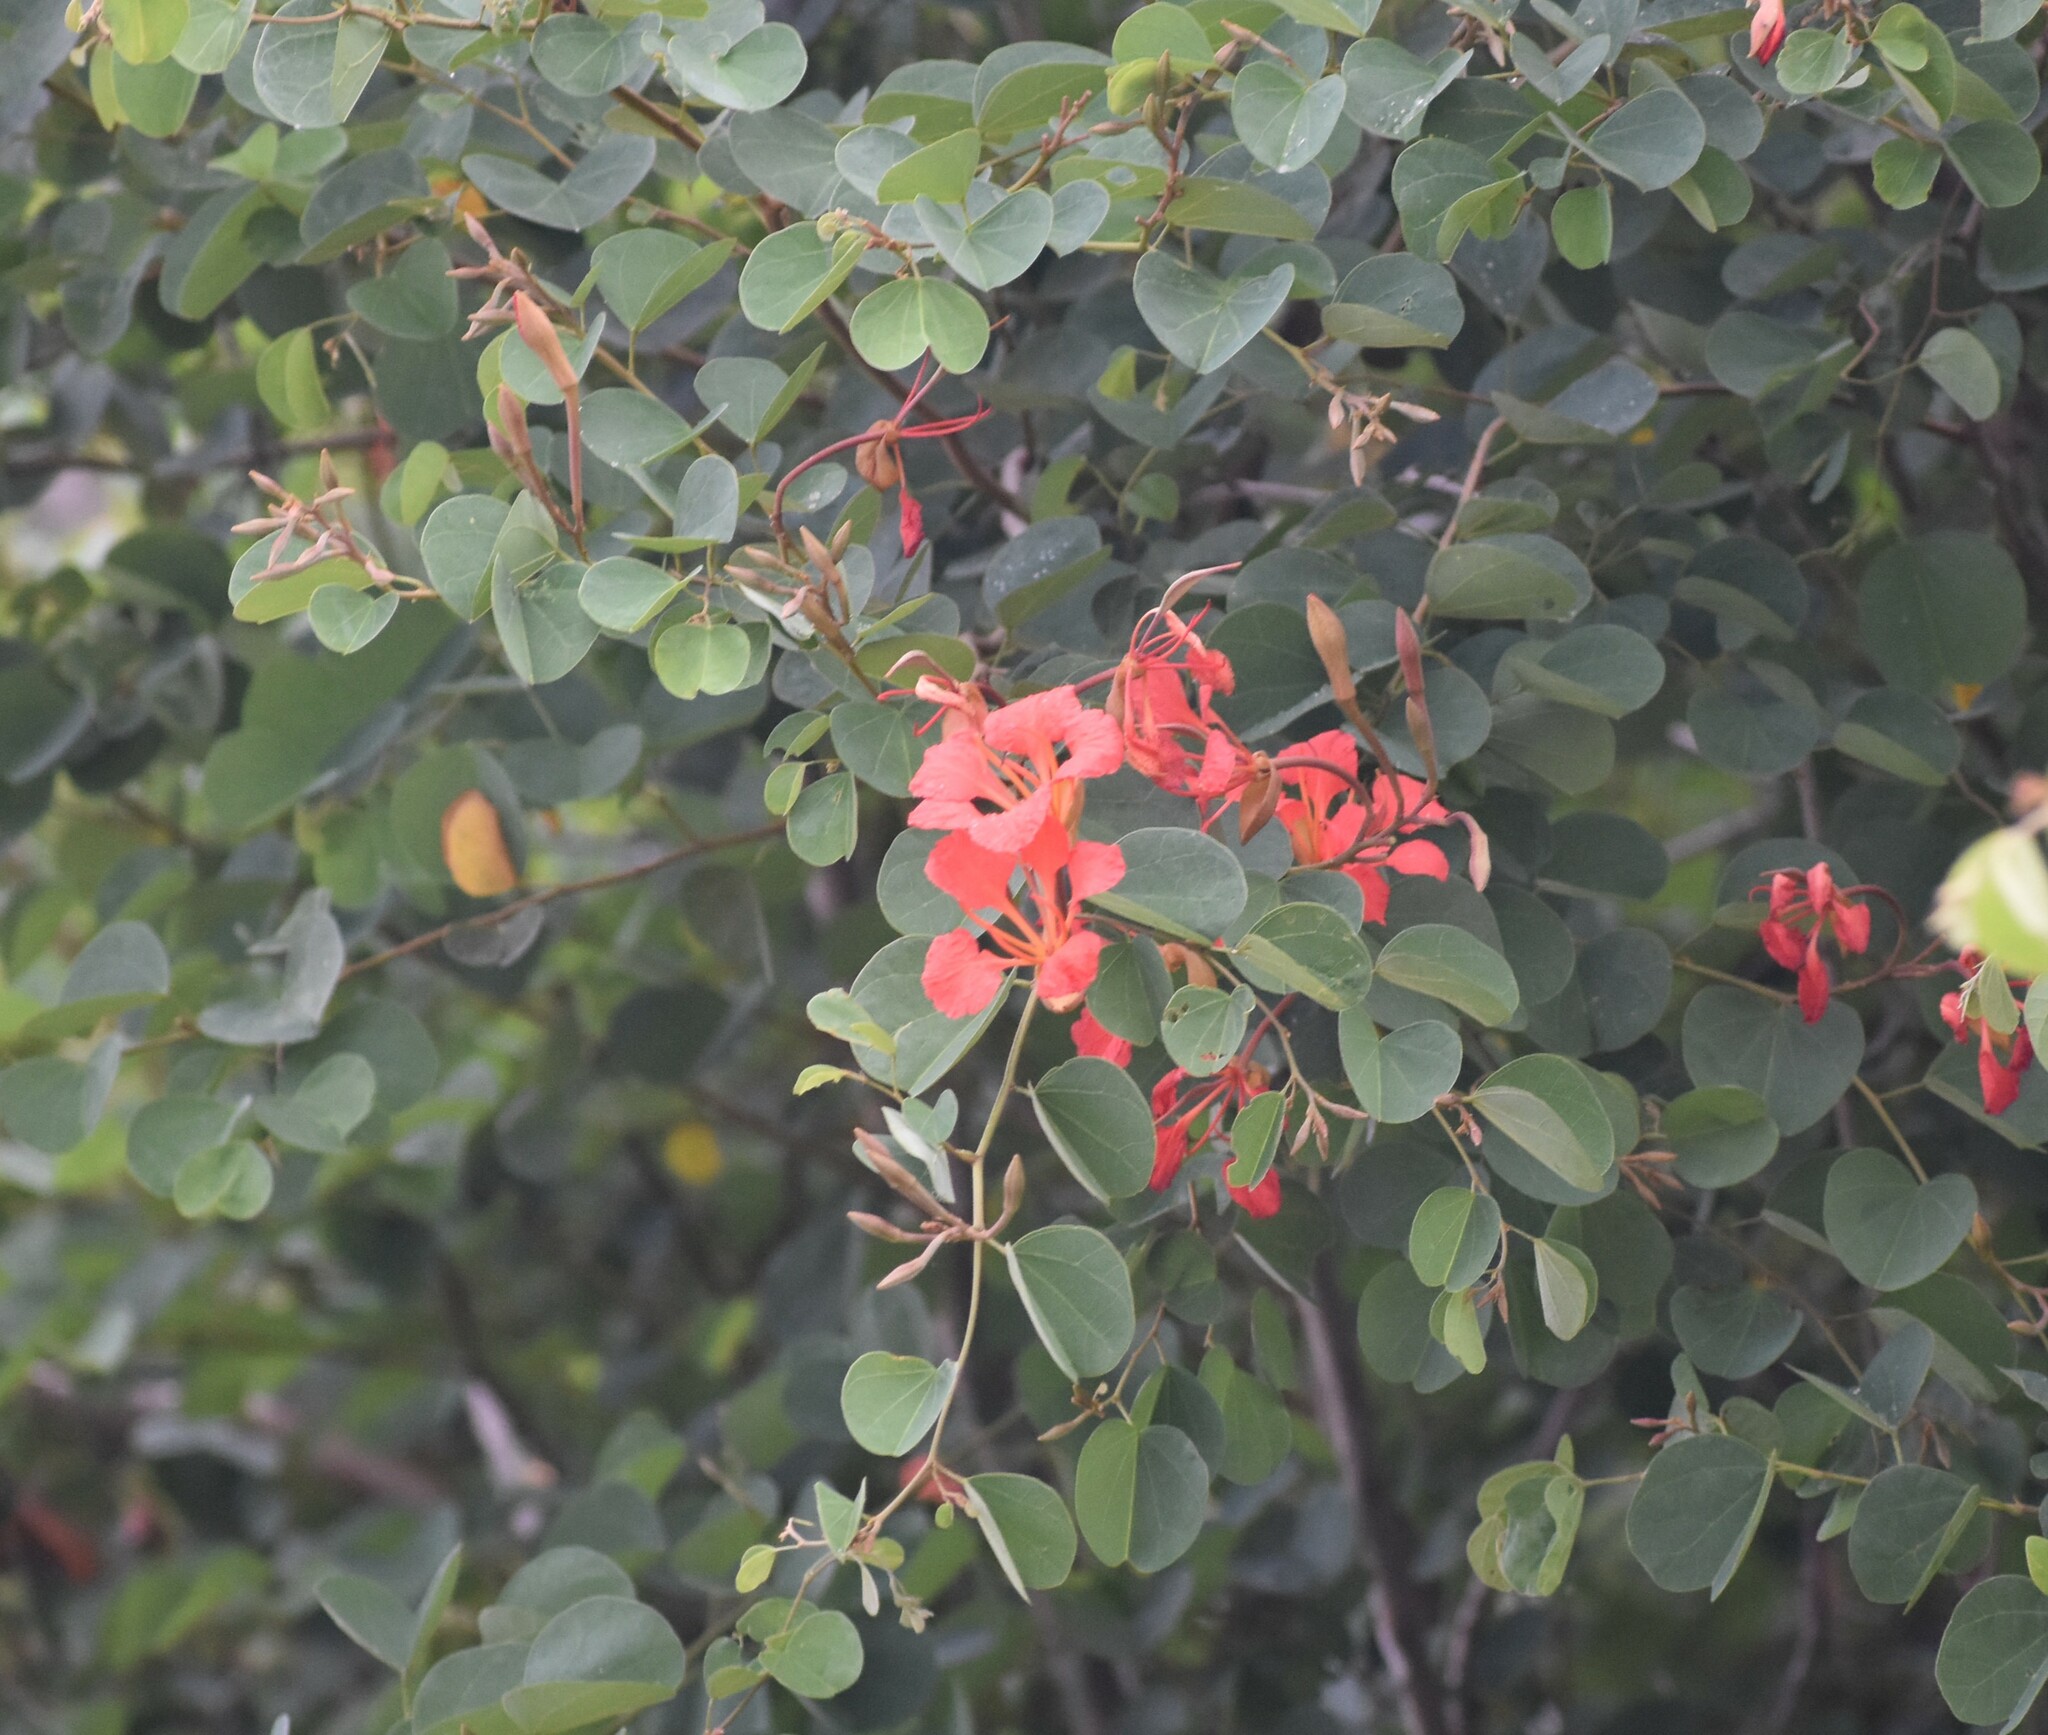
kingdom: Plantae
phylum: Tracheophyta
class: Magnoliopsida
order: Fabales
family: Fabaceae
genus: Bauhinia
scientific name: Bauhinia galpinii
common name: African plume
